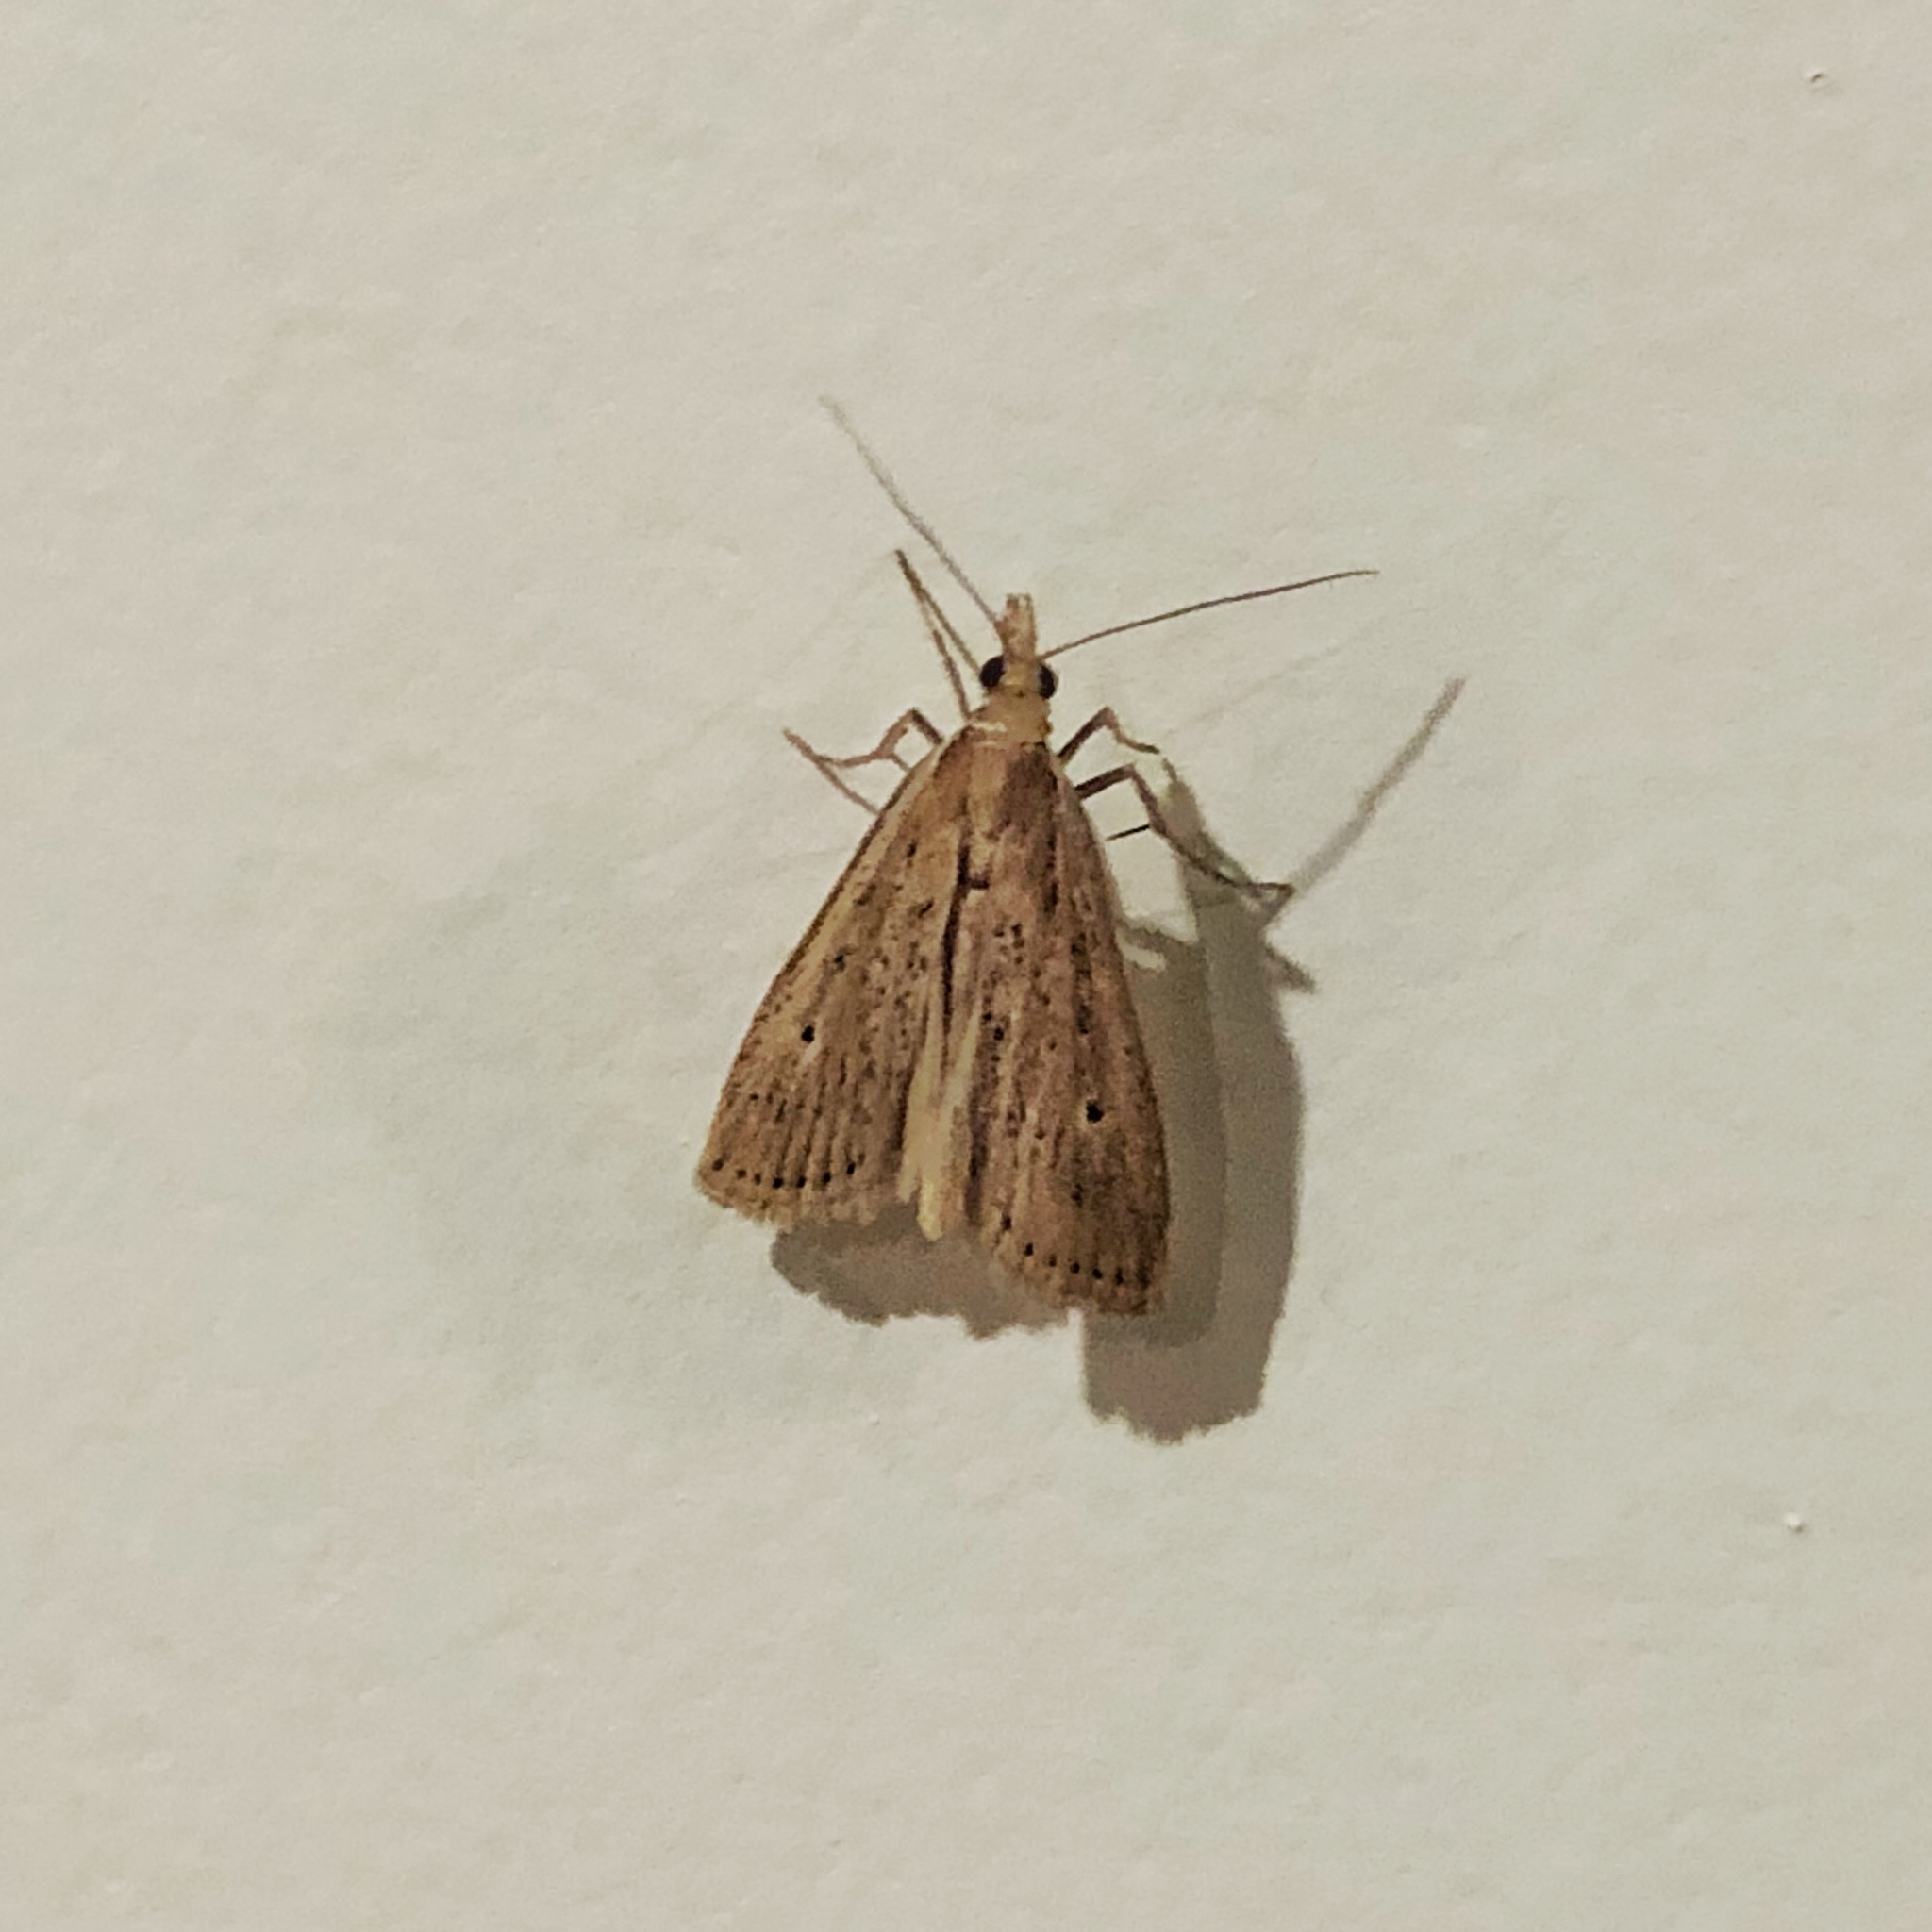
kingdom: Animalia
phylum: Arthropoda
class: Insecta
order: Lepidoptera
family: Crambidae
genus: Eudonia
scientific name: Eudonia sabulosella
